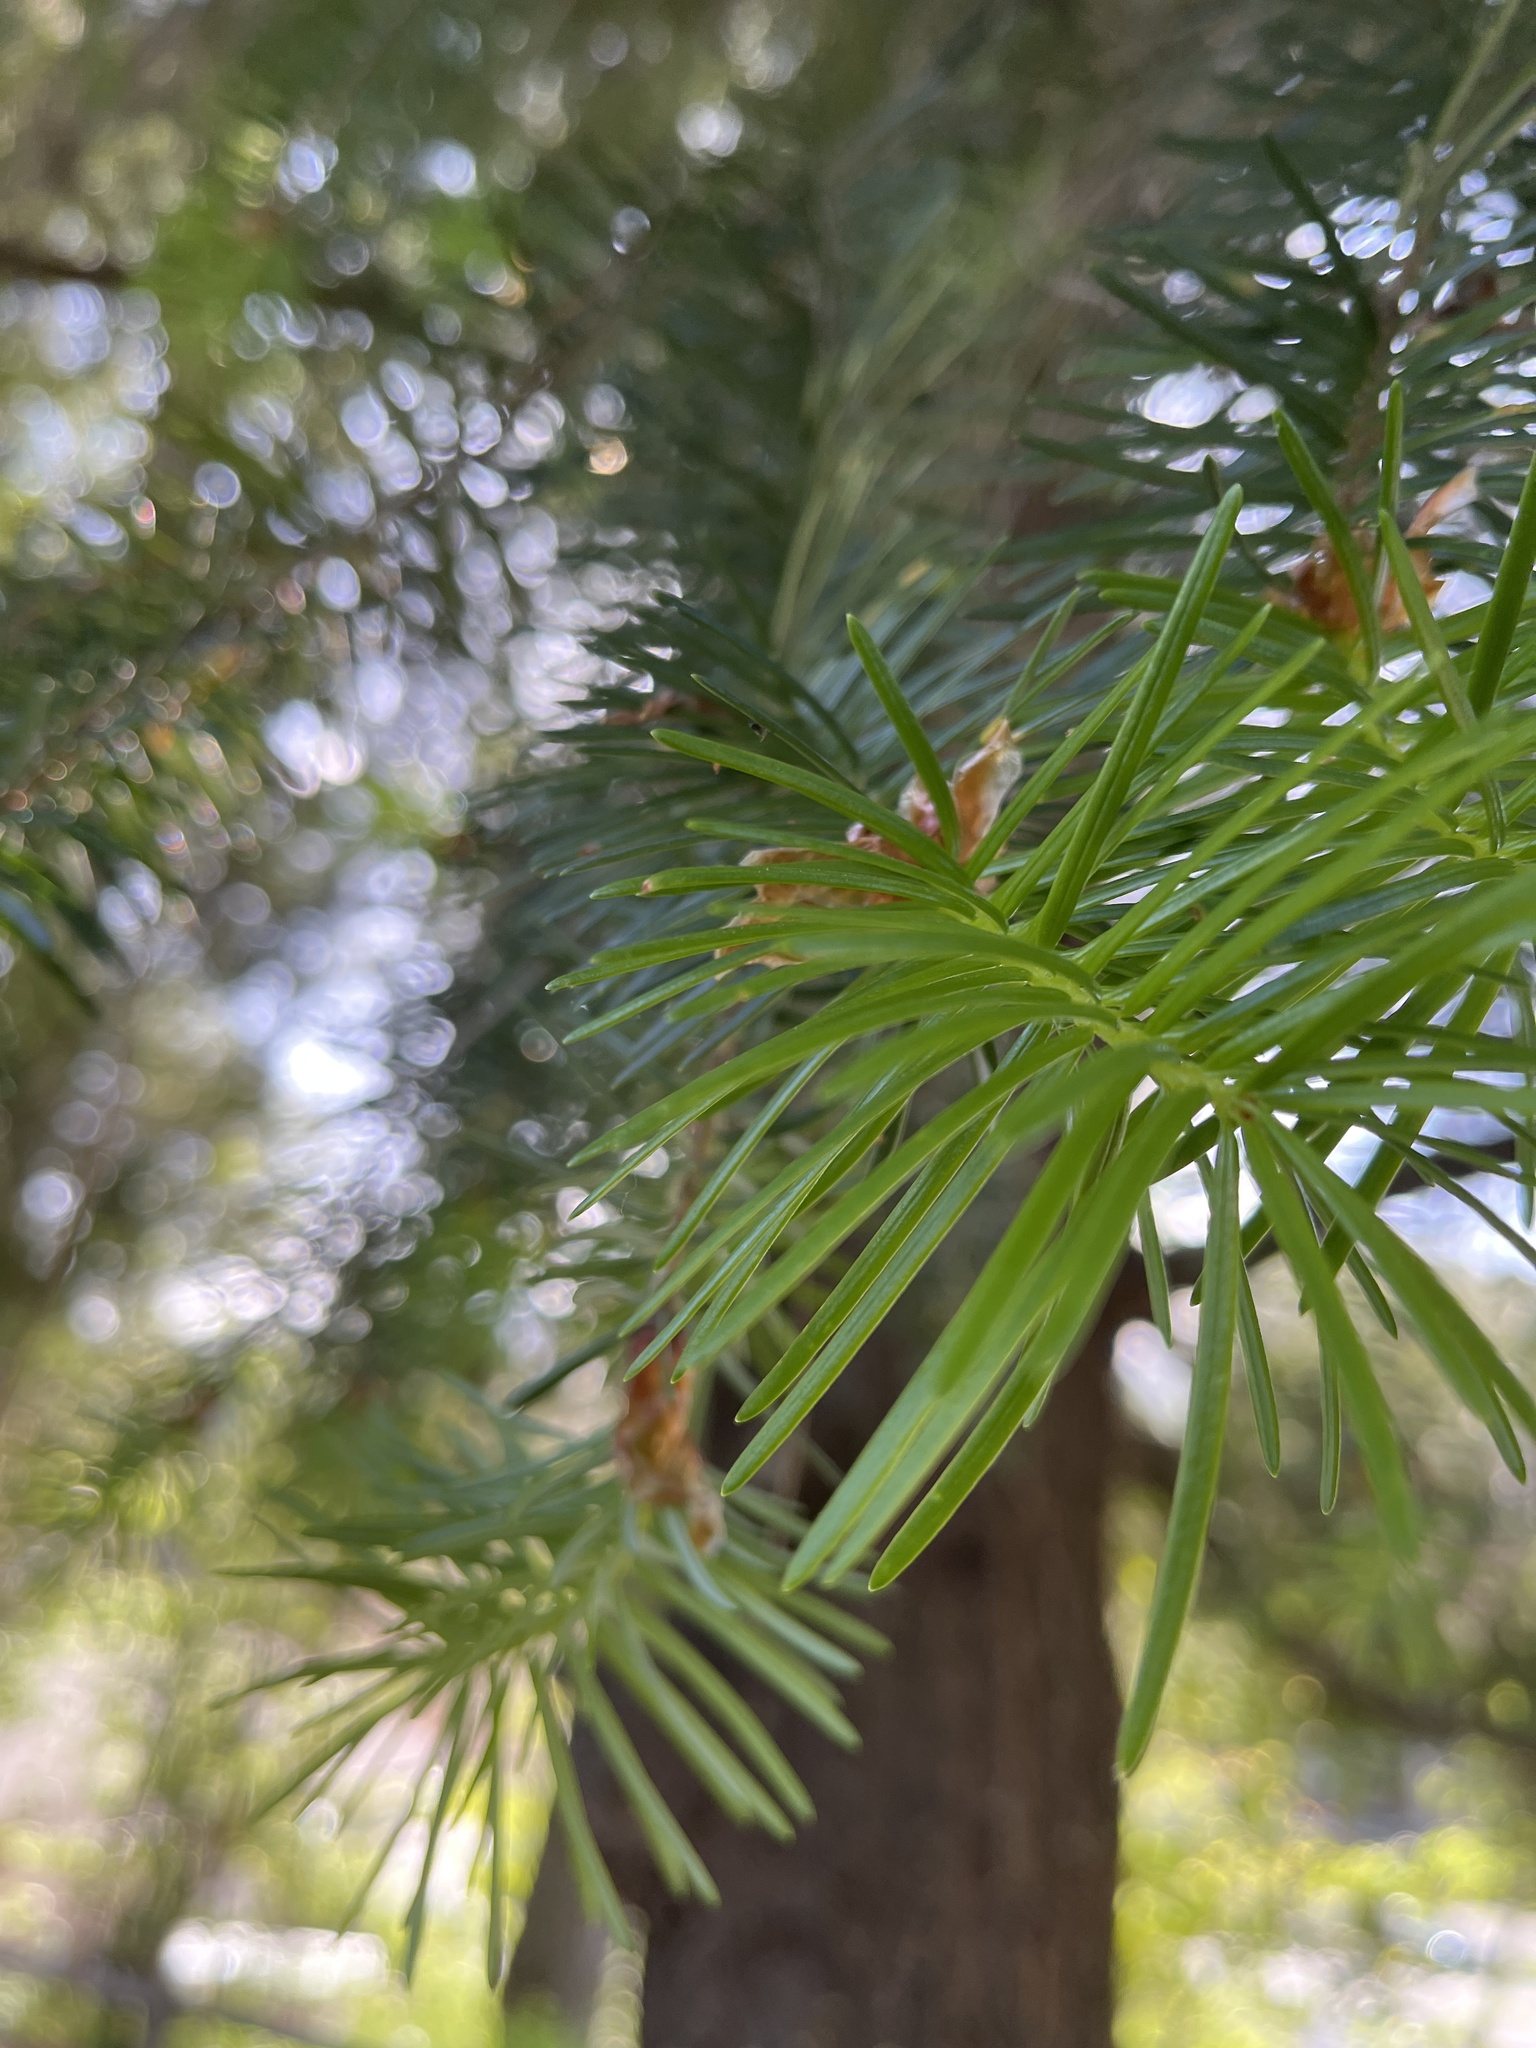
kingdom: Plantae
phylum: Tracheophyta
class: Pinopsida
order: Pinales
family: Pinaceae
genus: Pseudotsuga
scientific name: Pseudotsuga menziesii
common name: Douglas fir
